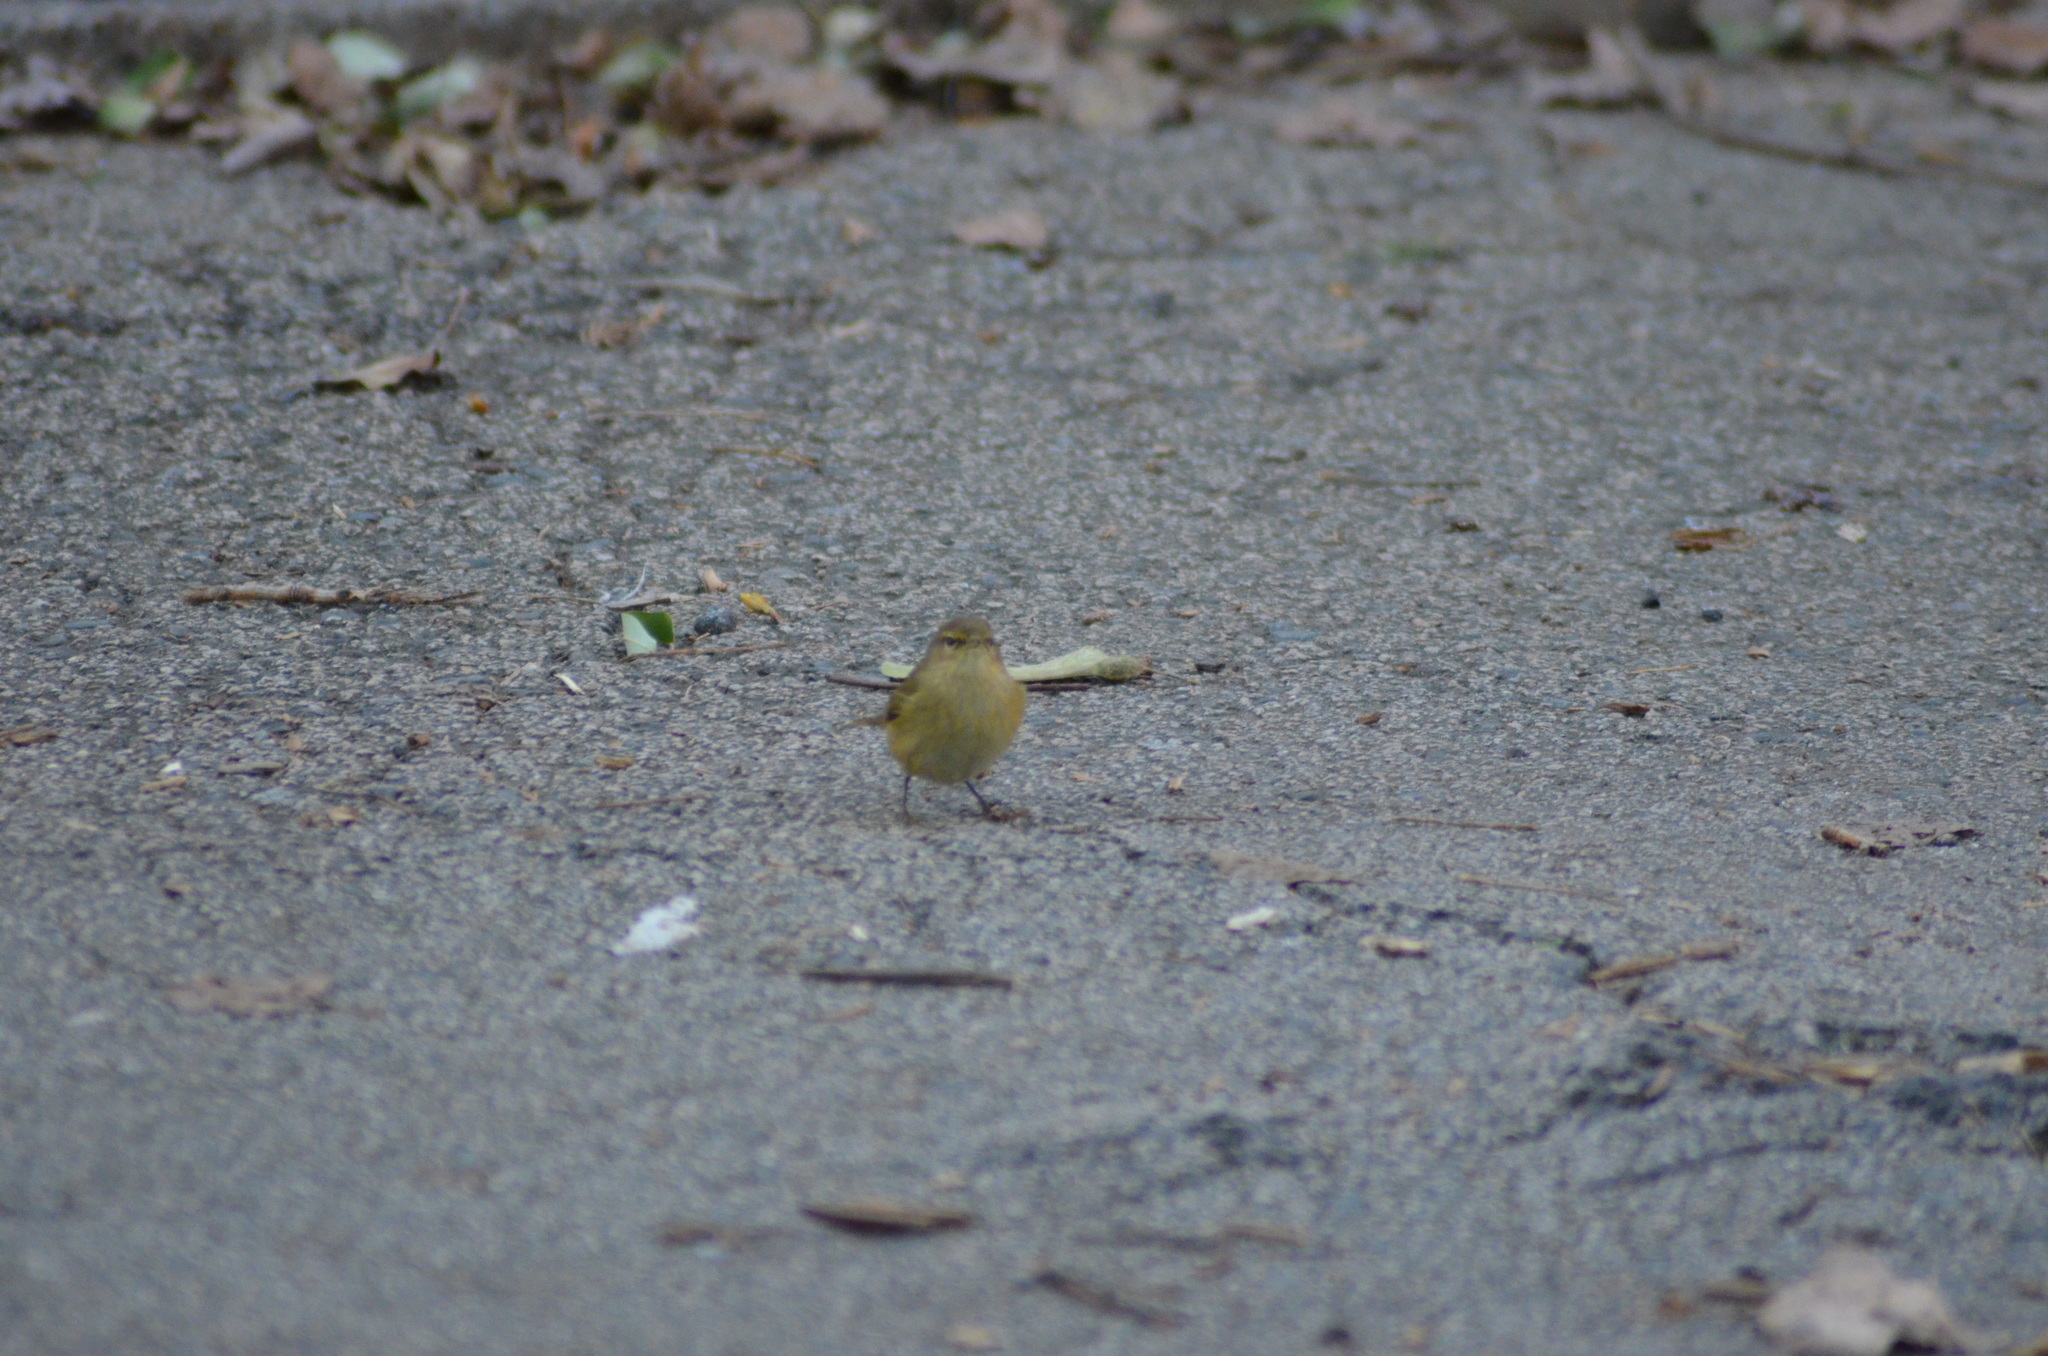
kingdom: Animalia
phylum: Chordata
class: Aves
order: Passeriformes
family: Phylloscopidae
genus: Phylloscopus
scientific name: Phylloscopus collybita
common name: Common chiffchaff
